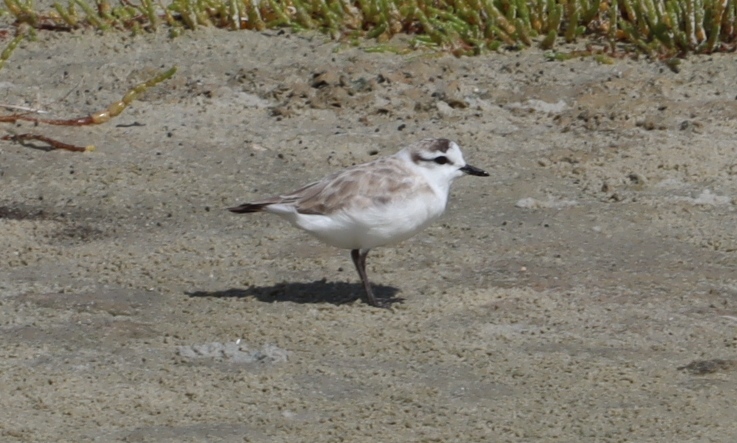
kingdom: Animalia
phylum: Chordata
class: Aves
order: Charadriiformes
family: Charadriidae
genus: Anarhynchus
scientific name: Anarhynchus
